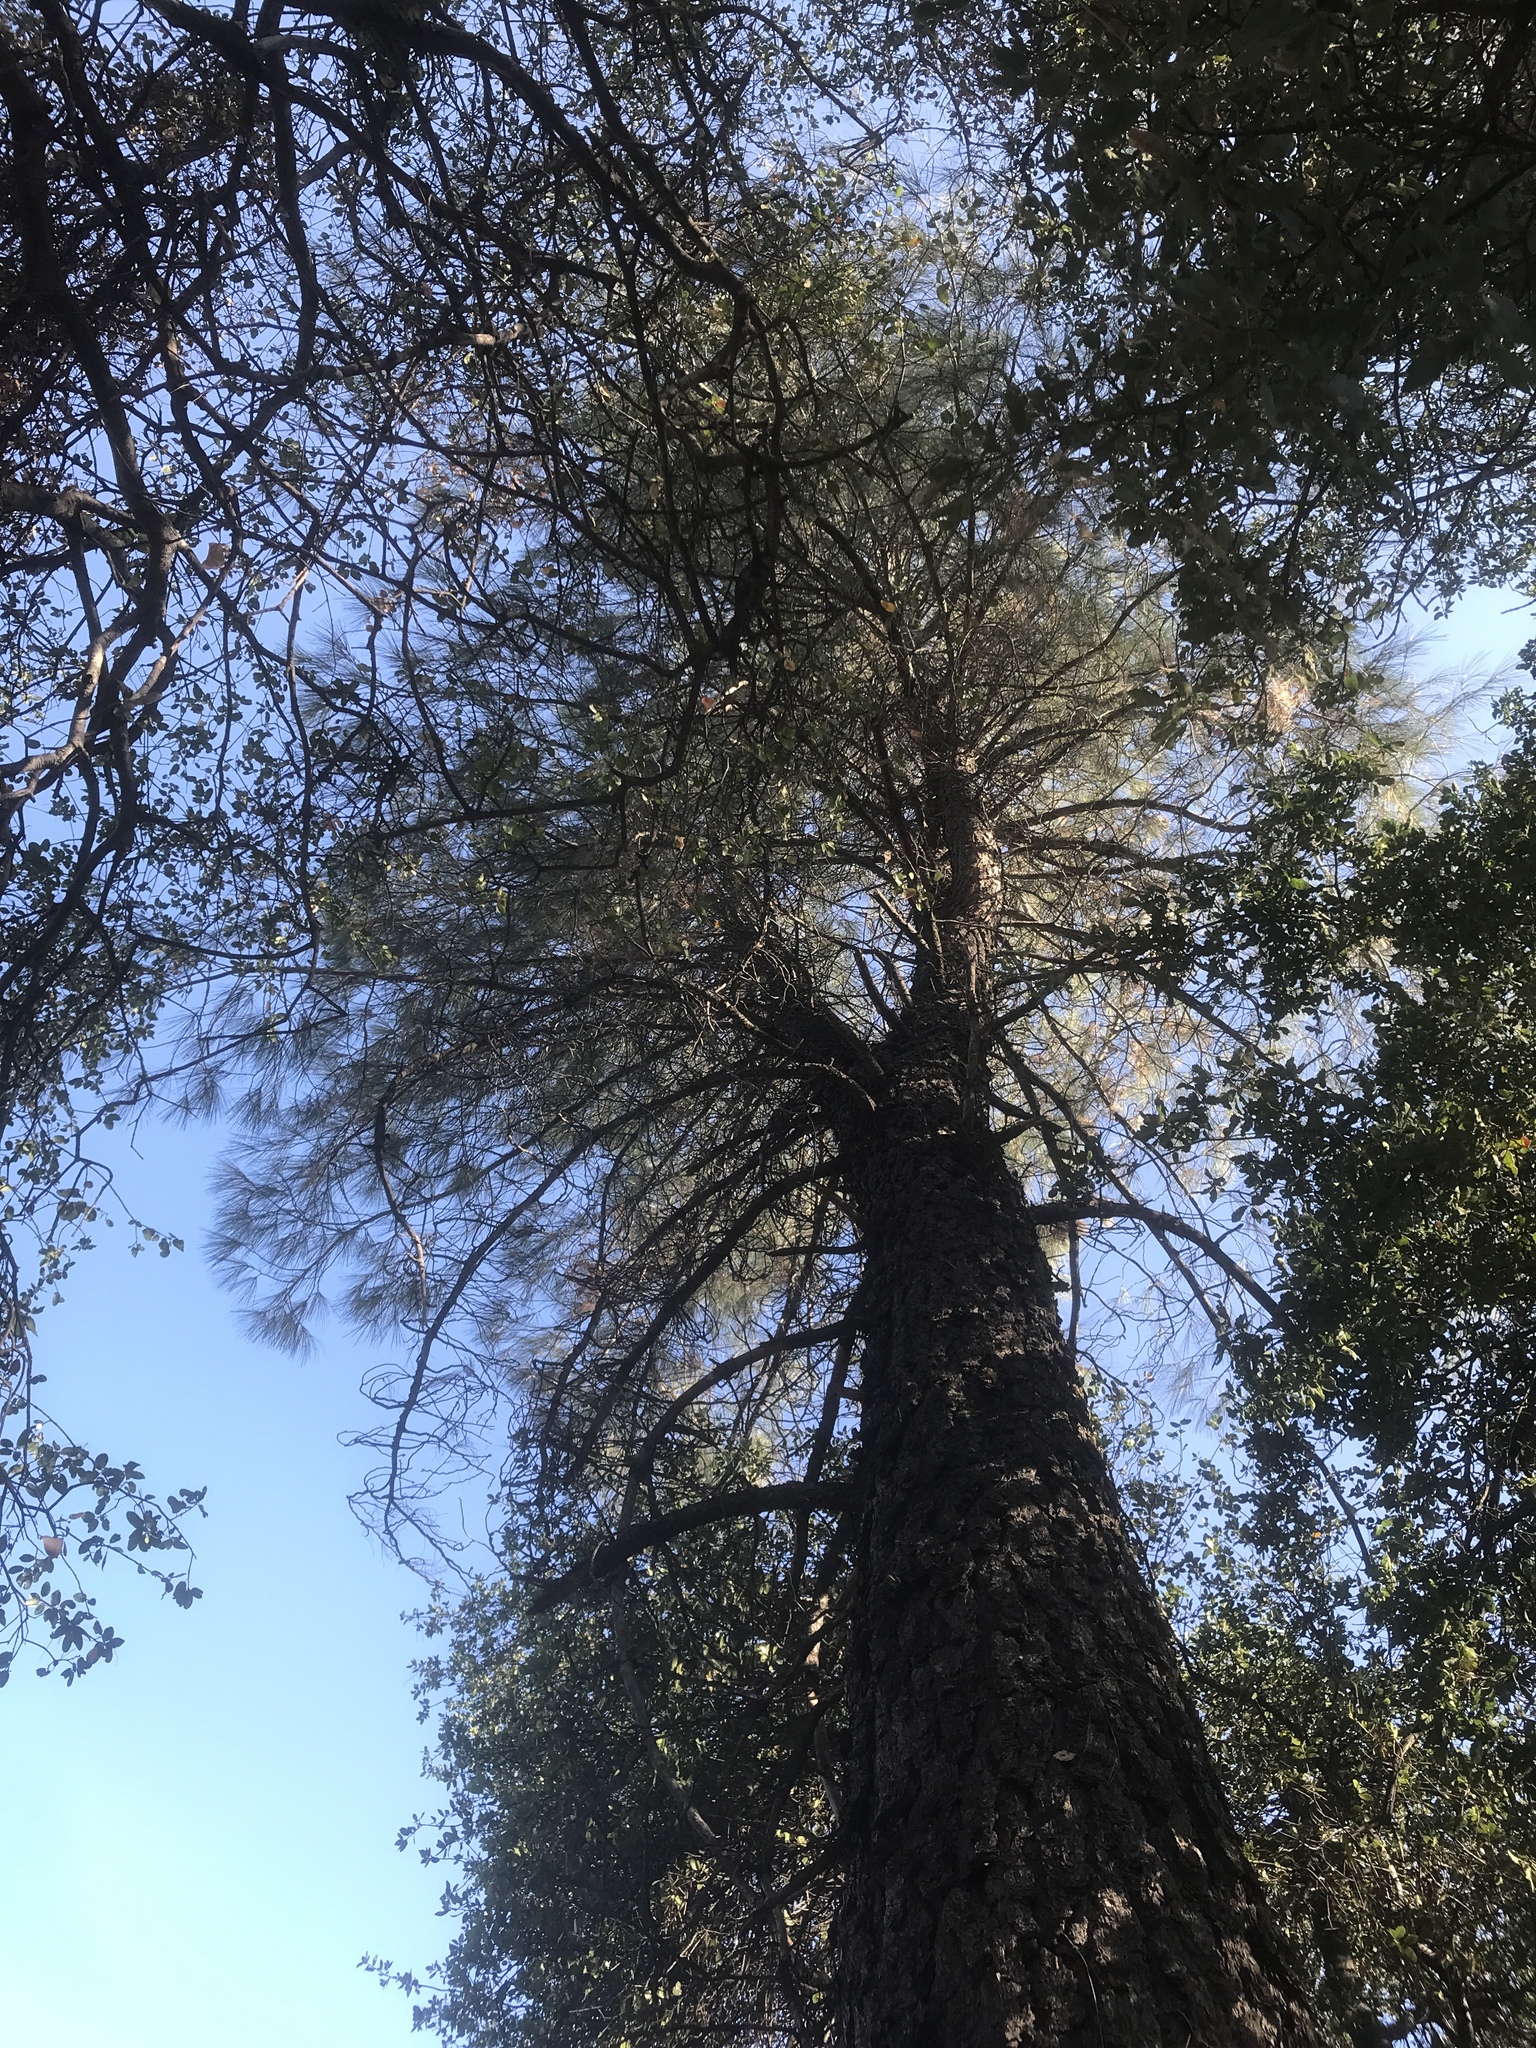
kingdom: Plantae
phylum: Tracheophyta
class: Pinopsida
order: Pinales
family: Pinaceae
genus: Pinus
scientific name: Pinus sabiniana
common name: Bull pine
